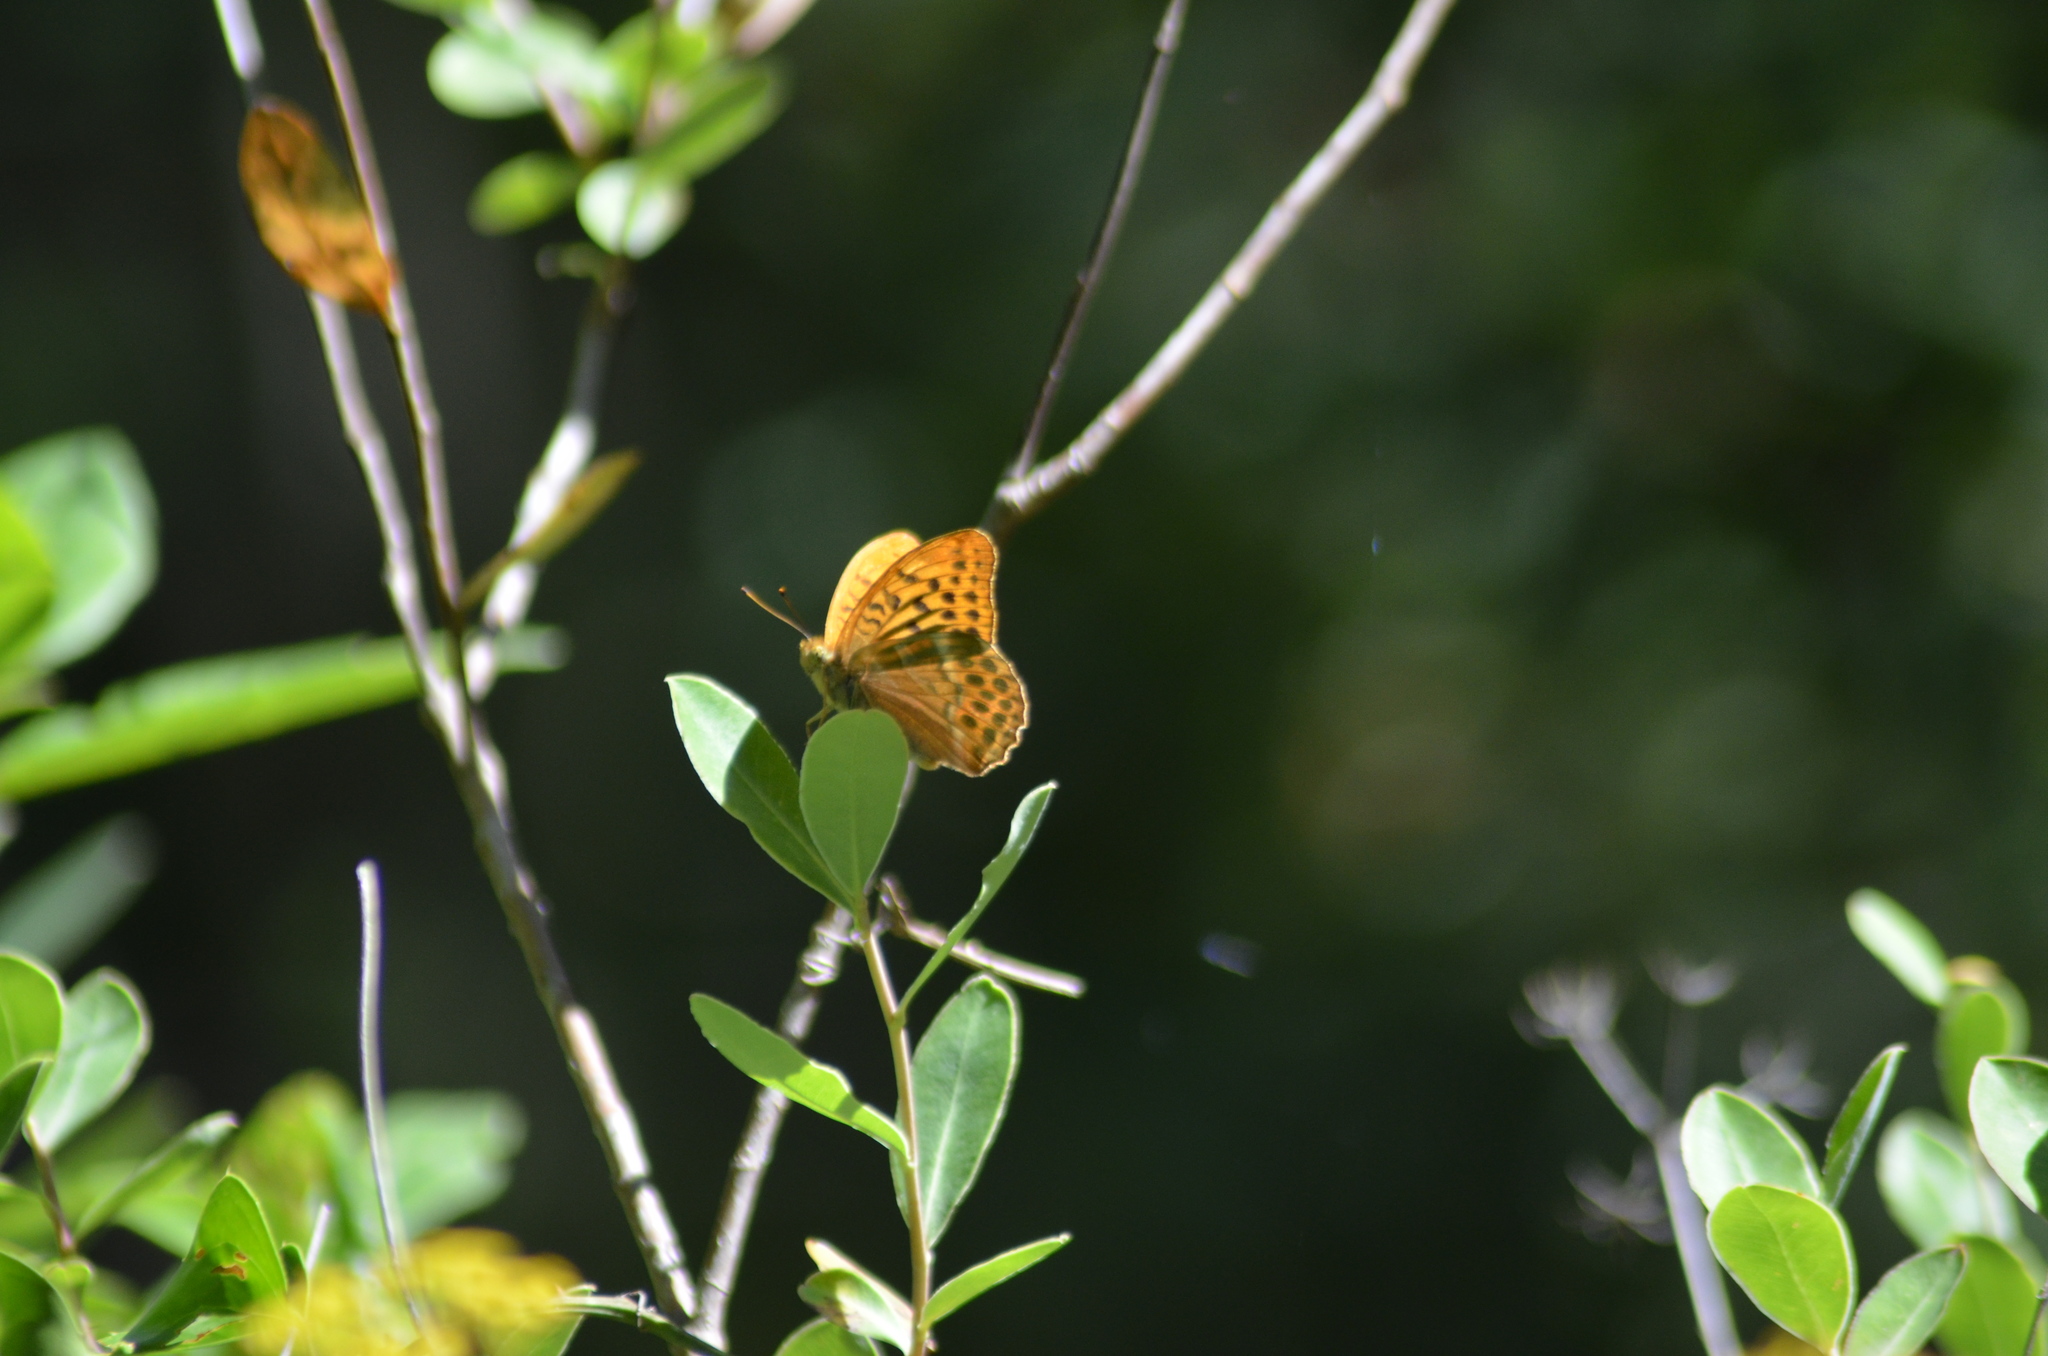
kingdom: Animalia
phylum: Arthropoda
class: Insecta
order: Lepidoptera
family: Nymphalidae
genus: Argynnis
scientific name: Argynnis paphia
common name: Silver-washed fritillary
